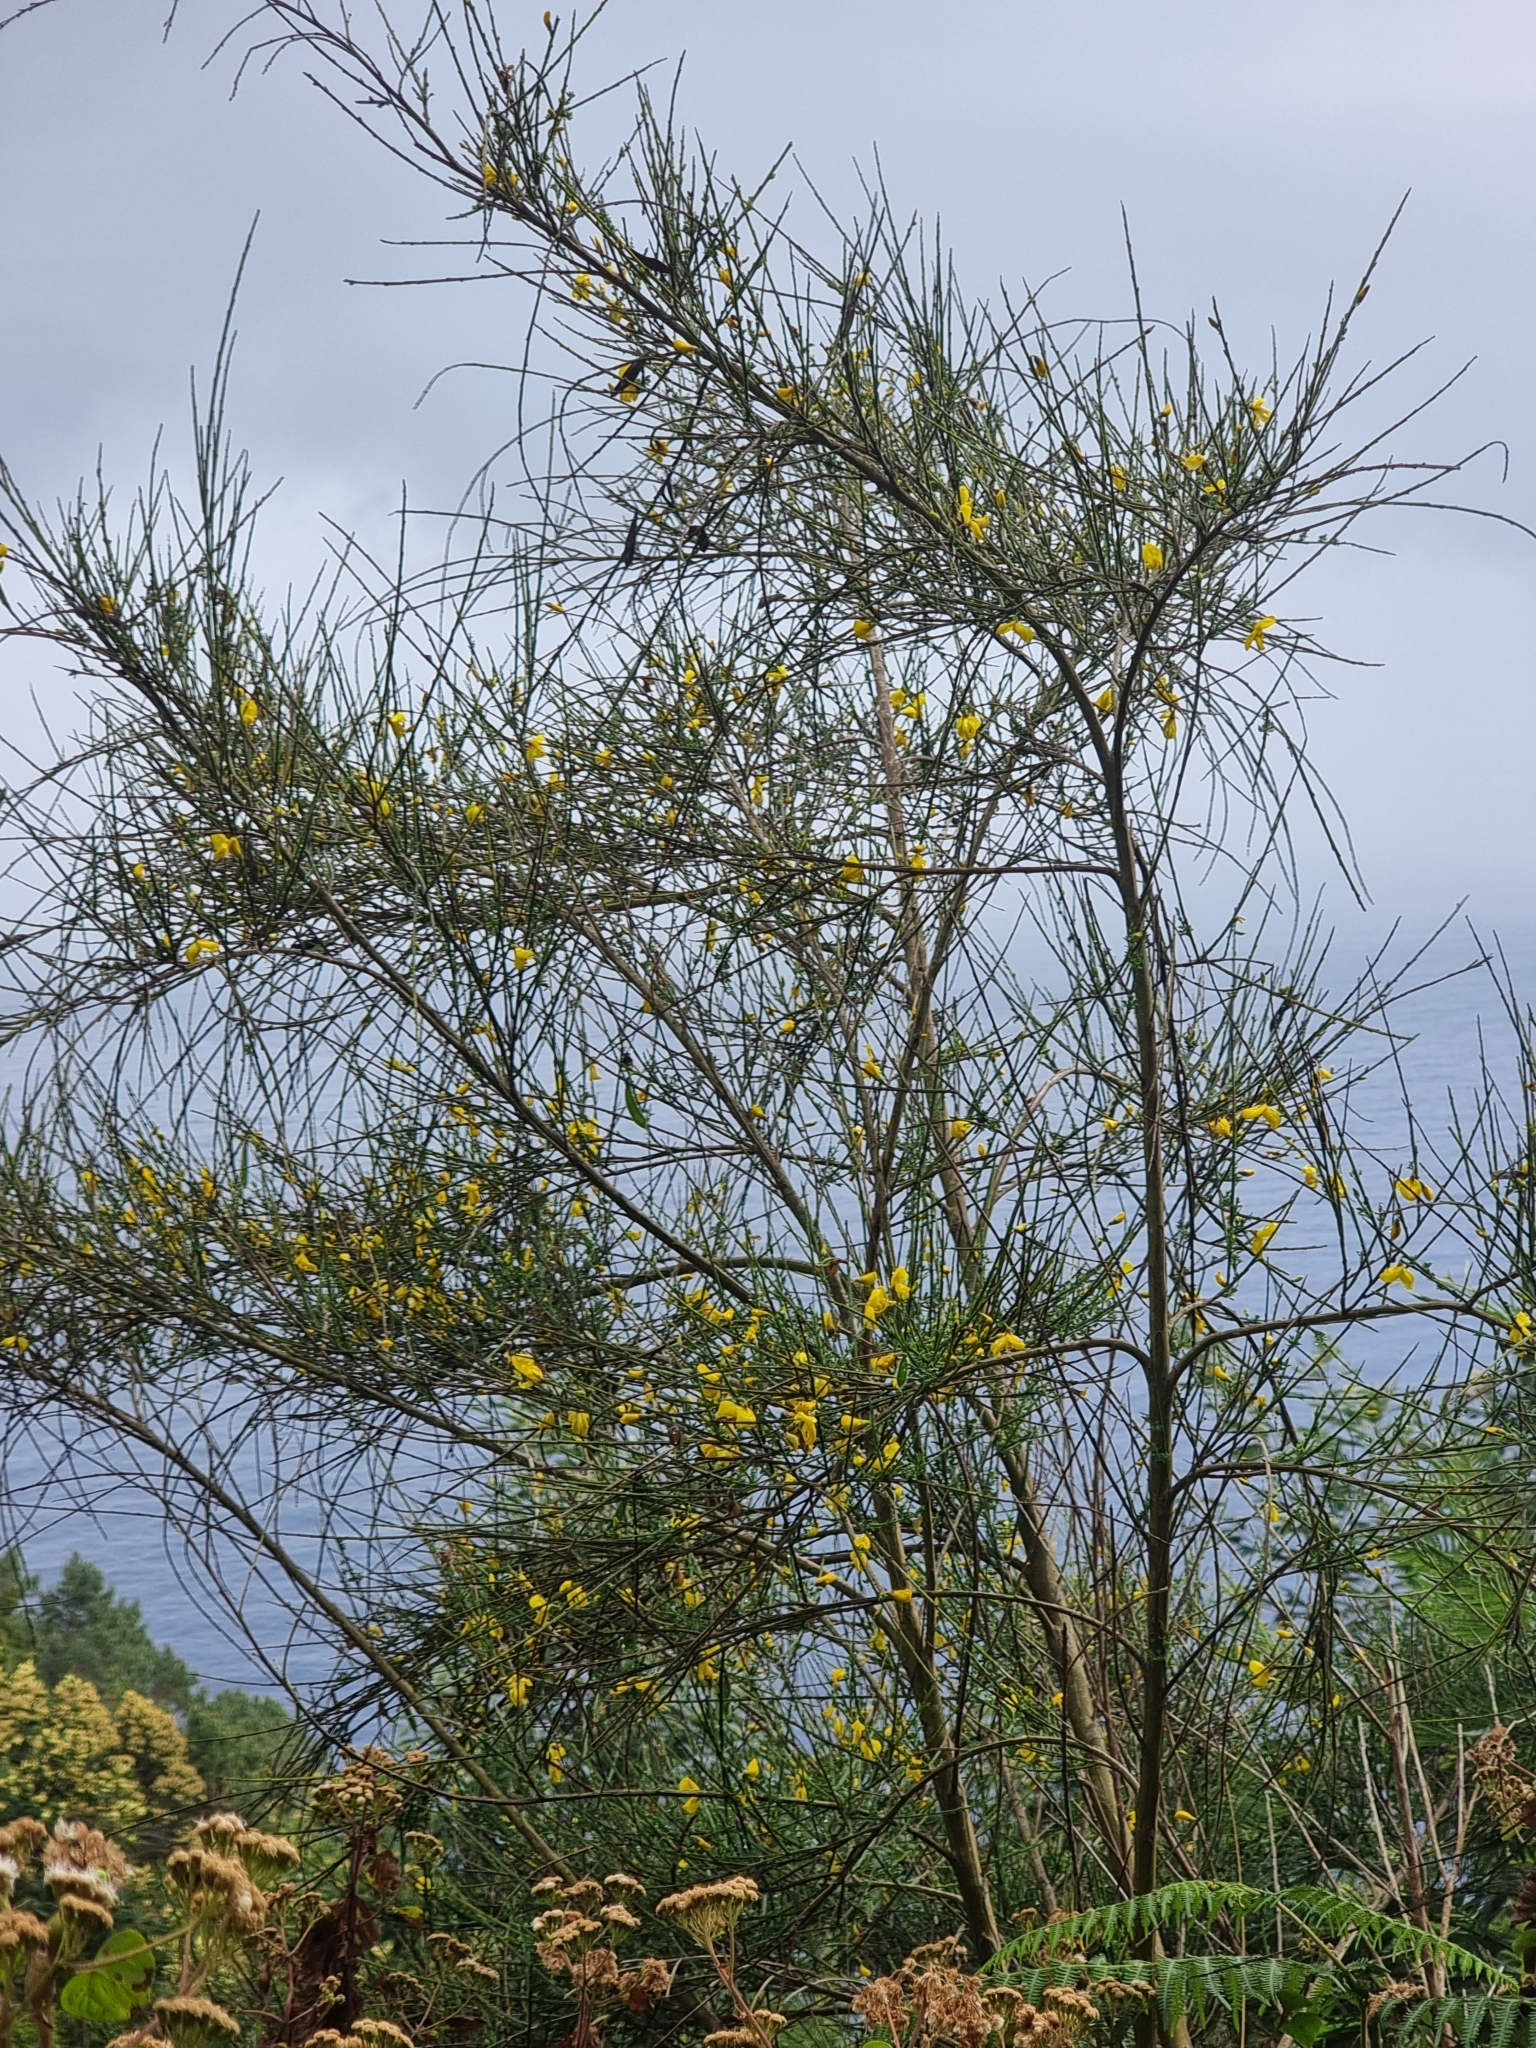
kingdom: Plantae
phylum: Tracheophyta
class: Magnoliopsida
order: Fabales
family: Fabaceae
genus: Cytisus
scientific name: Cytisus scoparius
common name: Scotch broom
